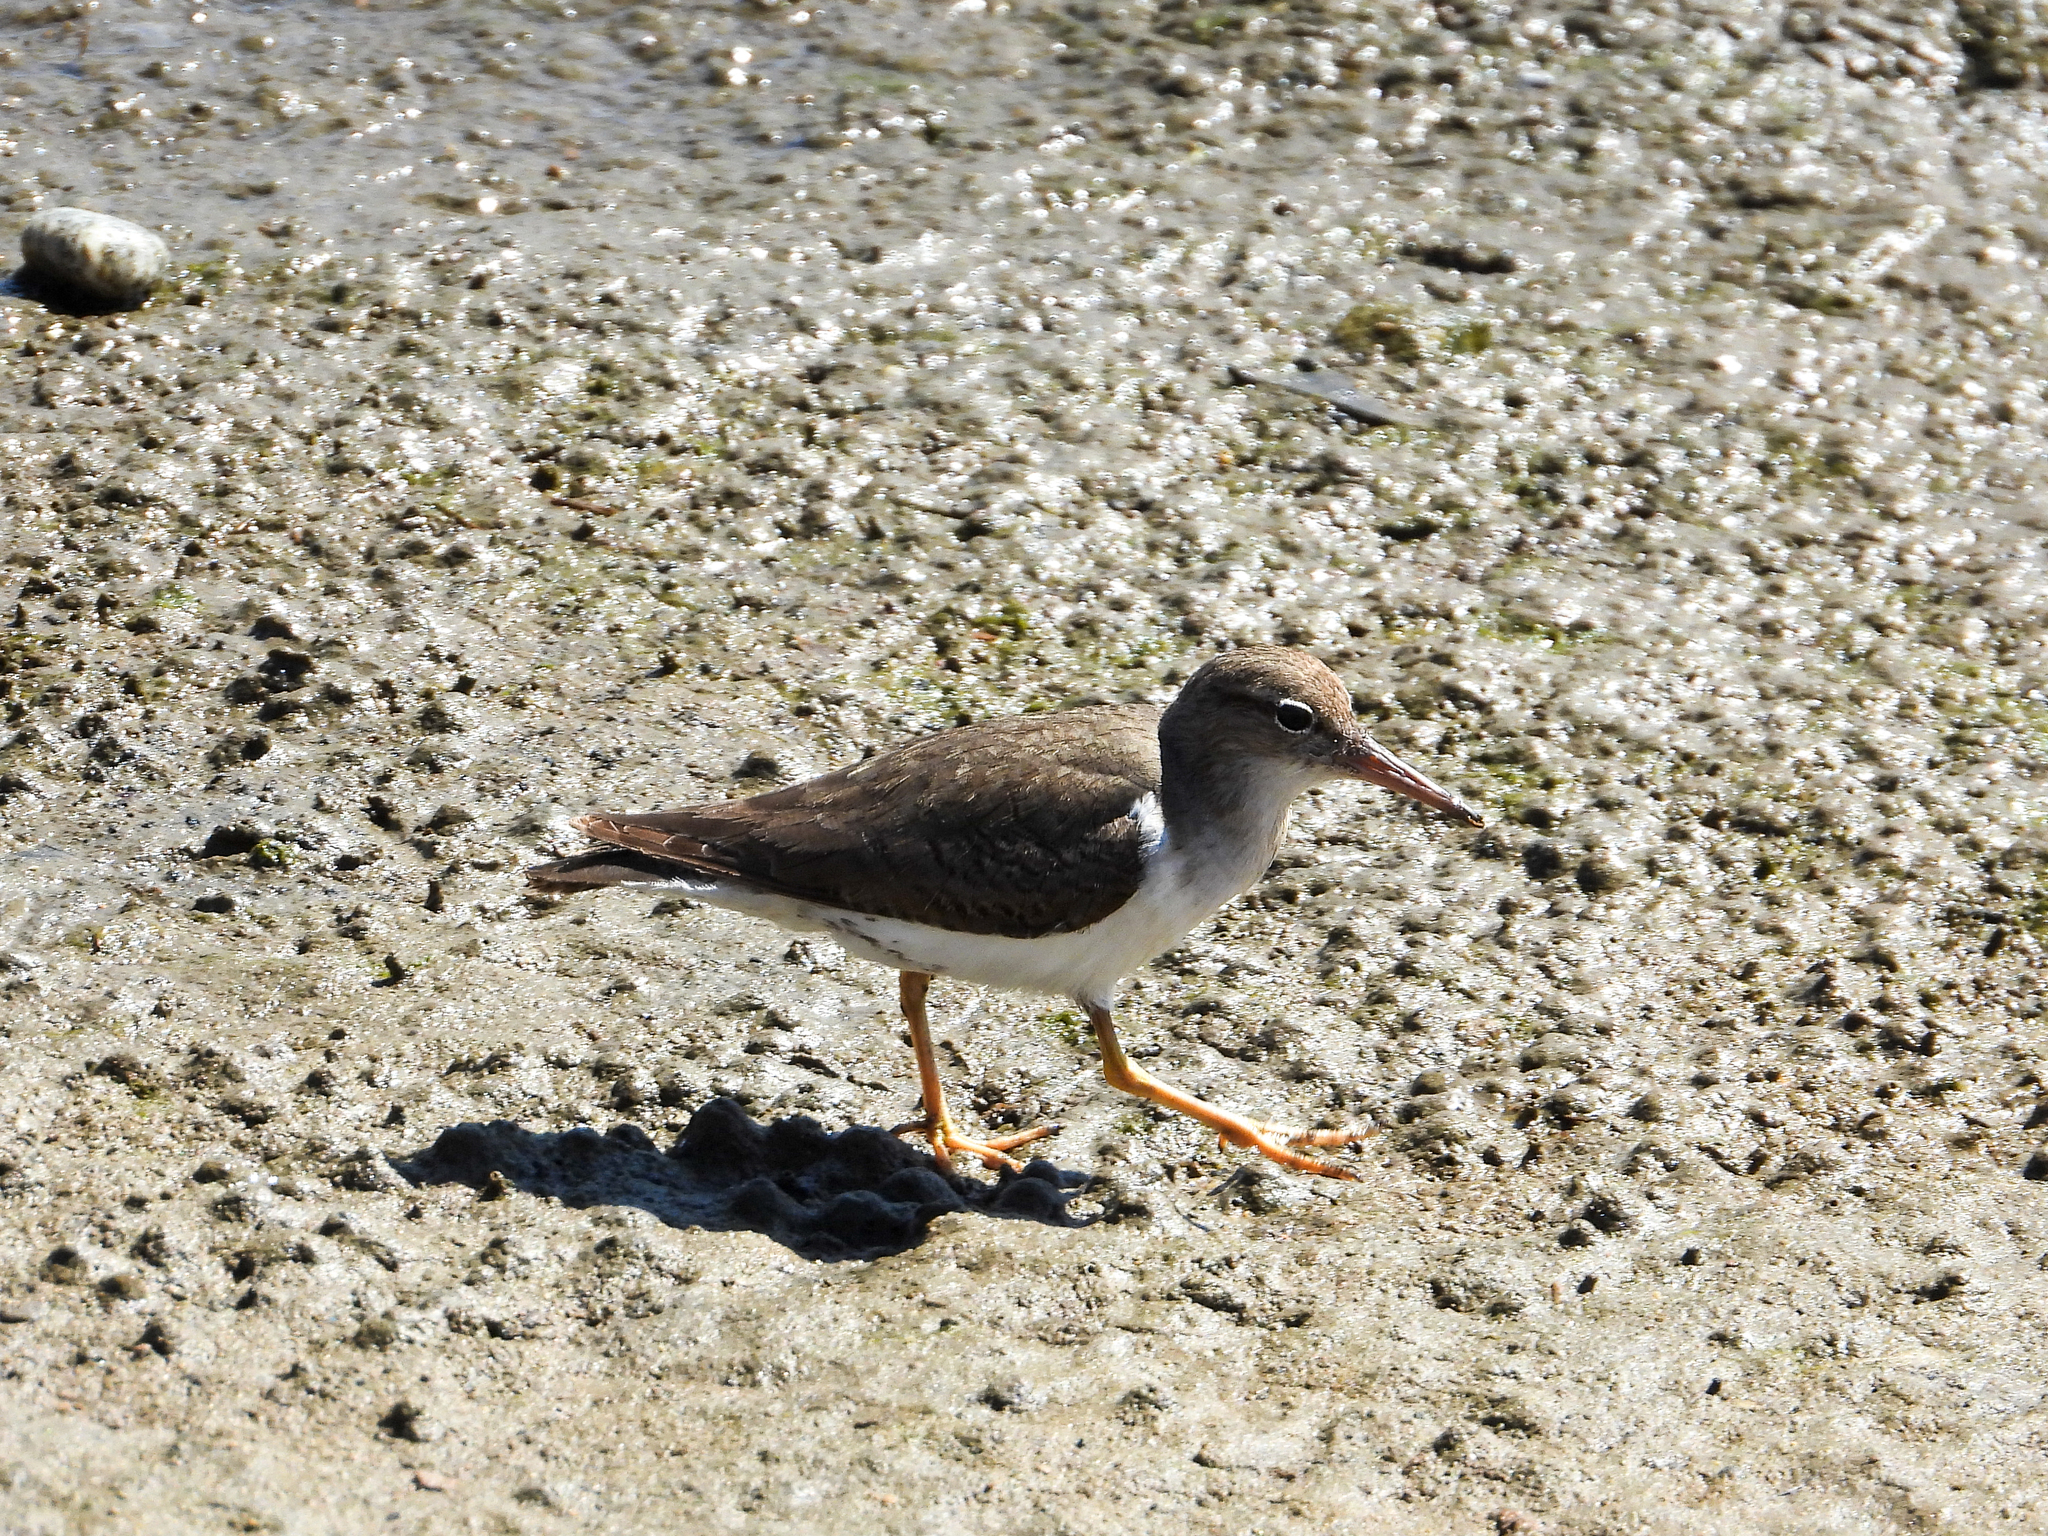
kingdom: Animalia
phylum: Chordata
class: Aves
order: Charadriiformes
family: Scolopacidae
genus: Actitis
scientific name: Actitis macularius
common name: Spotted sandpiper
